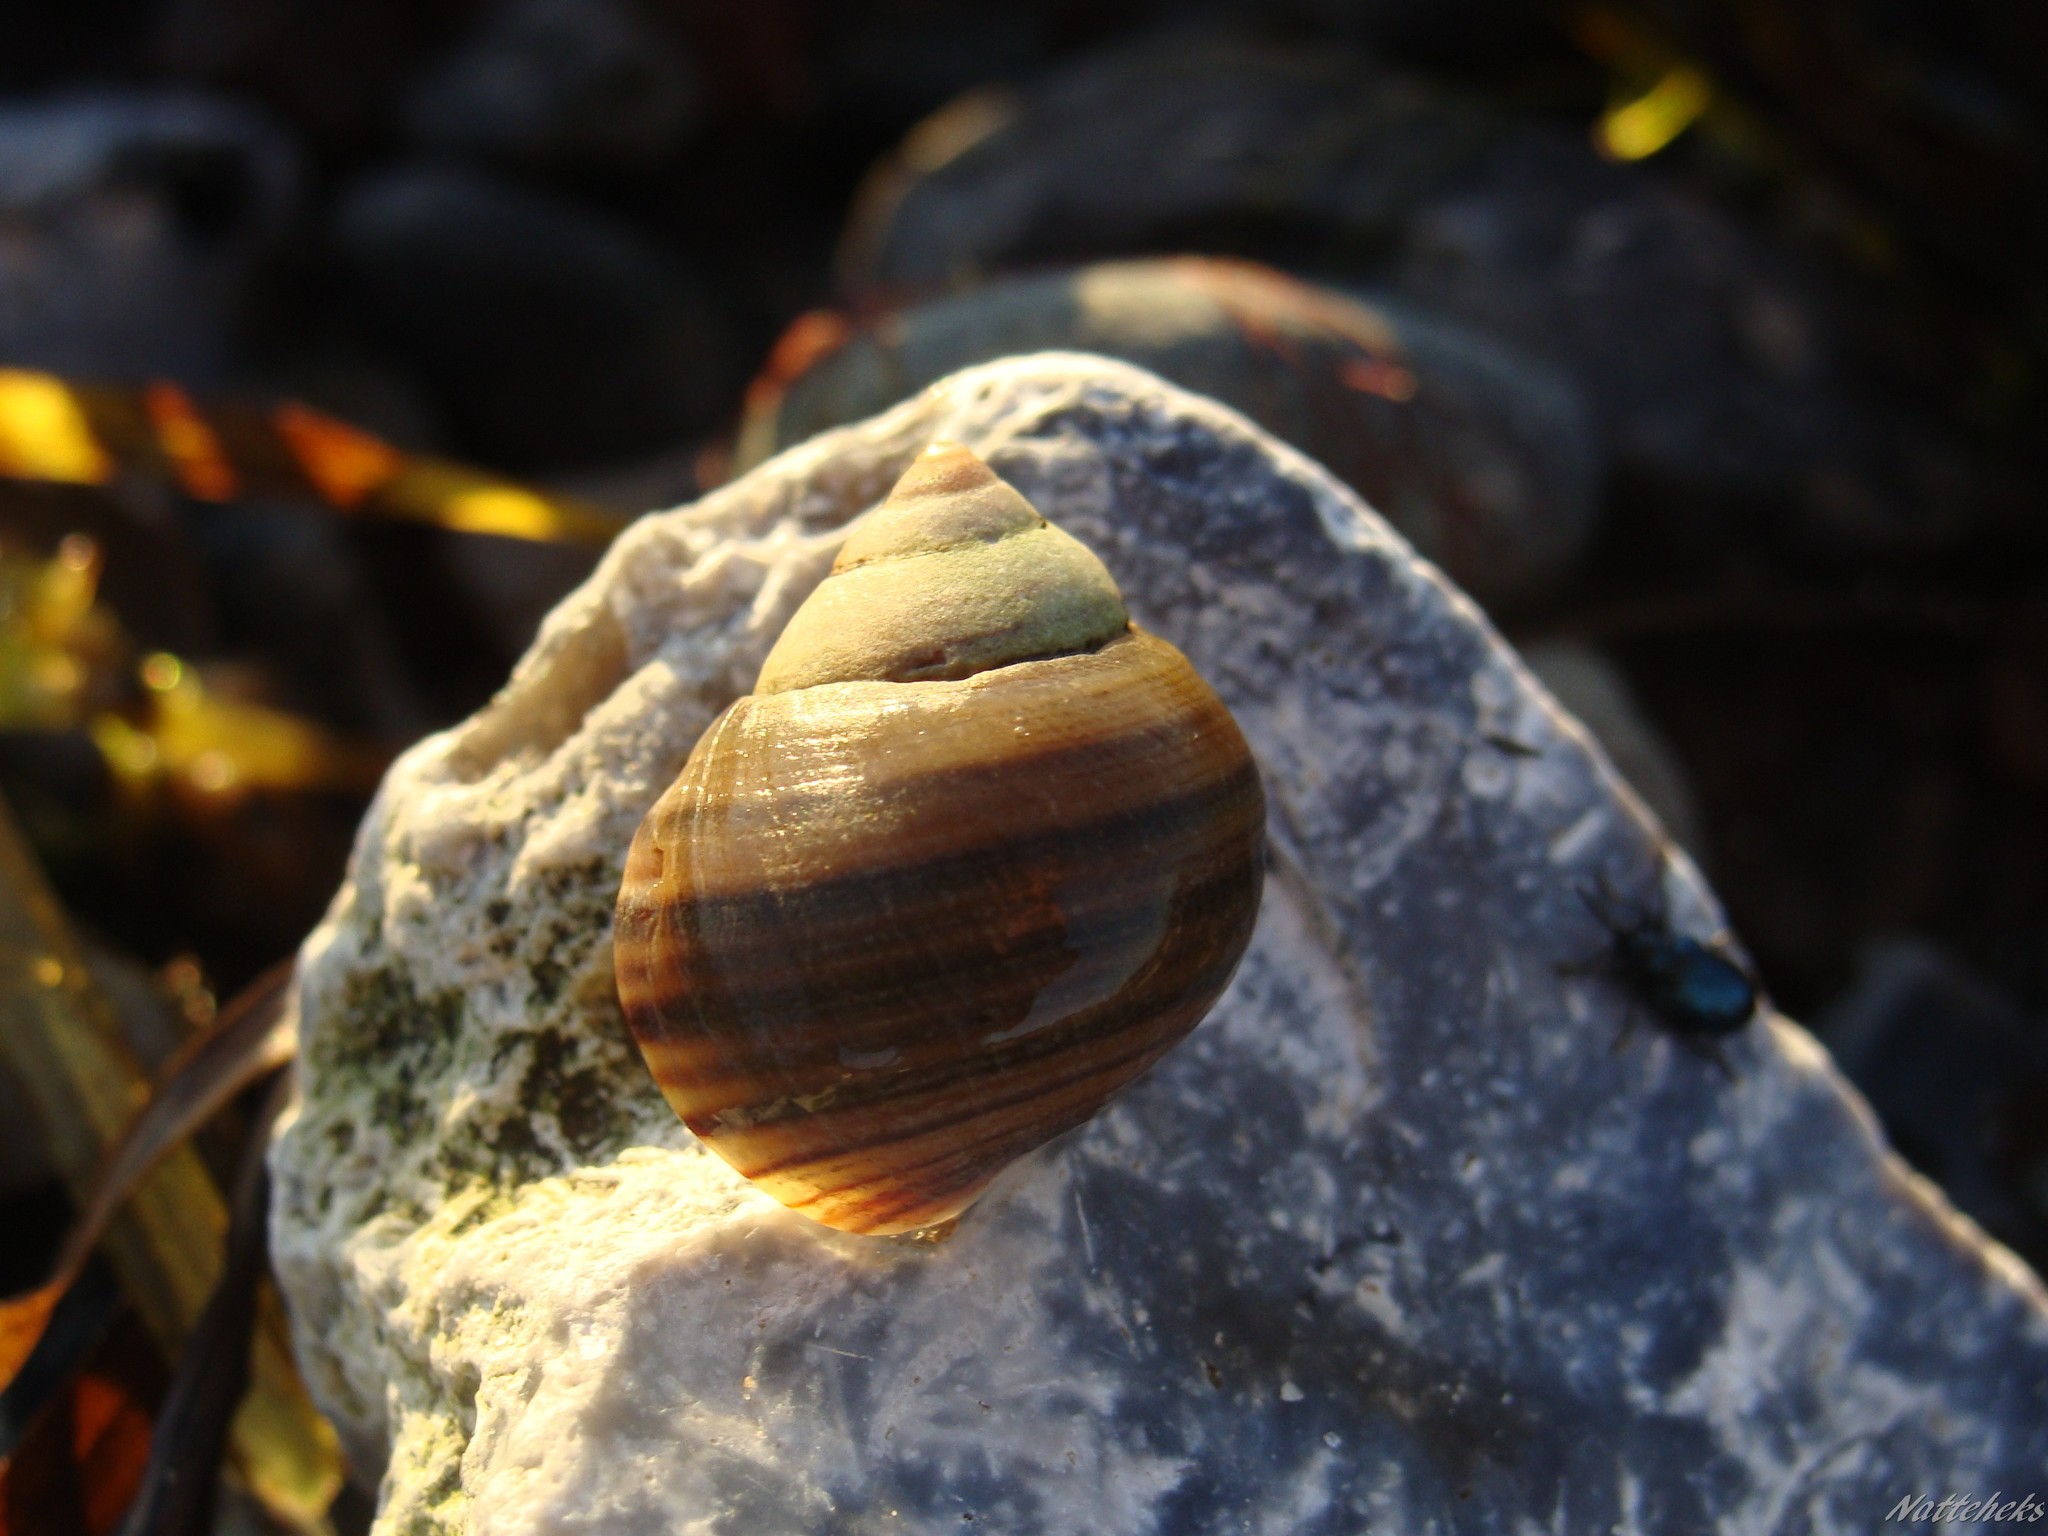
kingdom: Animalia
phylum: Mollusca
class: Gastropoda
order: Littorinimorpha
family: Littorinidae
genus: Littorina
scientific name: Littorina littorea
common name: Common periwinkle
